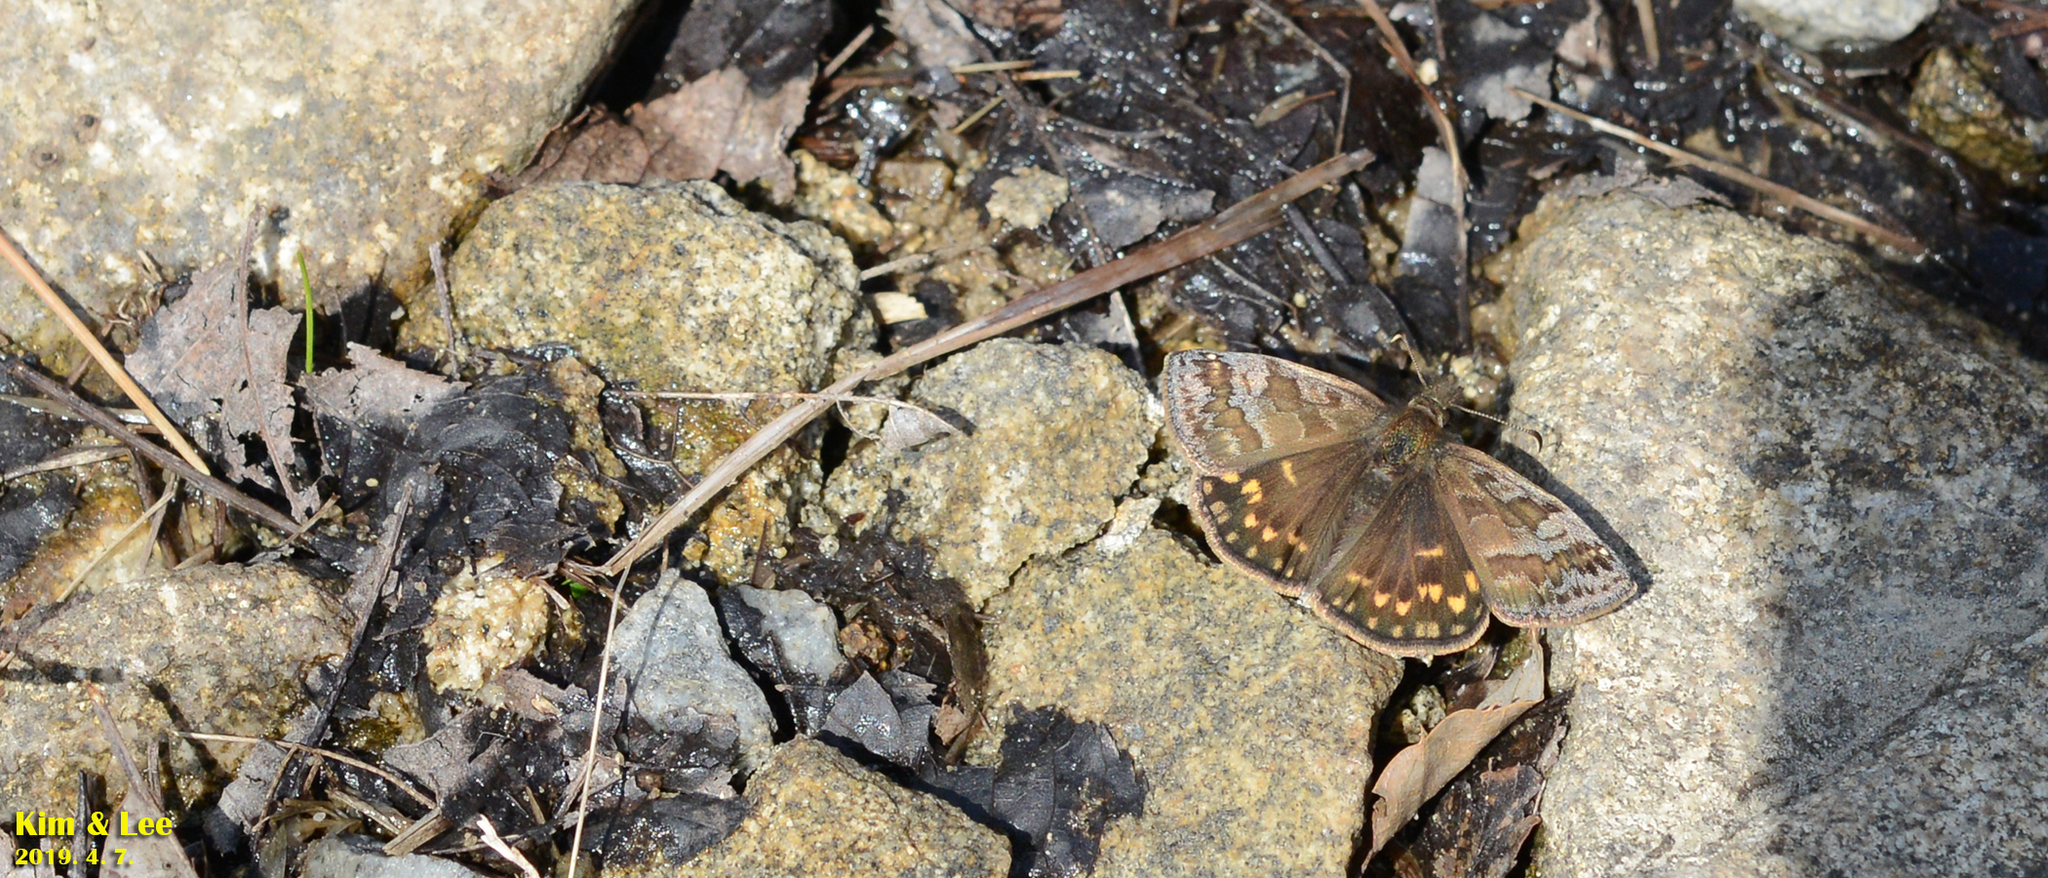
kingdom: Animalia
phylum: Arthropoda
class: Insecta
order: Lepidoptera
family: Hesperiidae
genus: Erynnis
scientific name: Erynnis montanus
